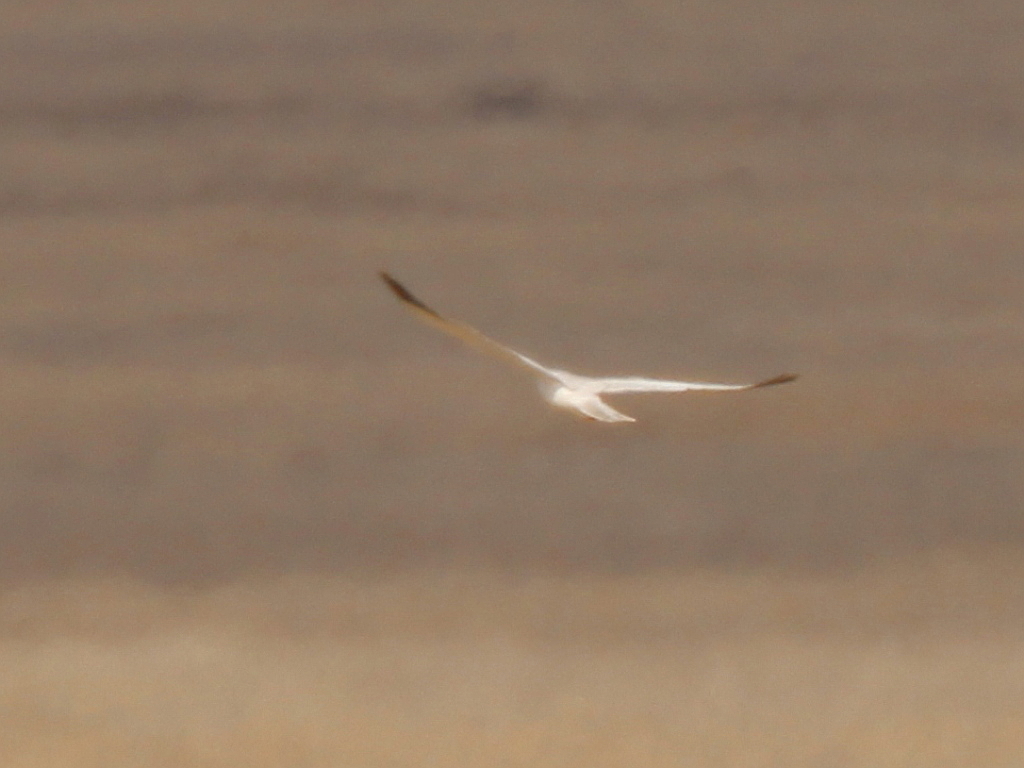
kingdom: Animalia
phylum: Chordata
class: Aves
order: Accipitriformes
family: Accipitridae
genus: Circus
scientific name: Circus macrourus
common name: Pallid harrier
